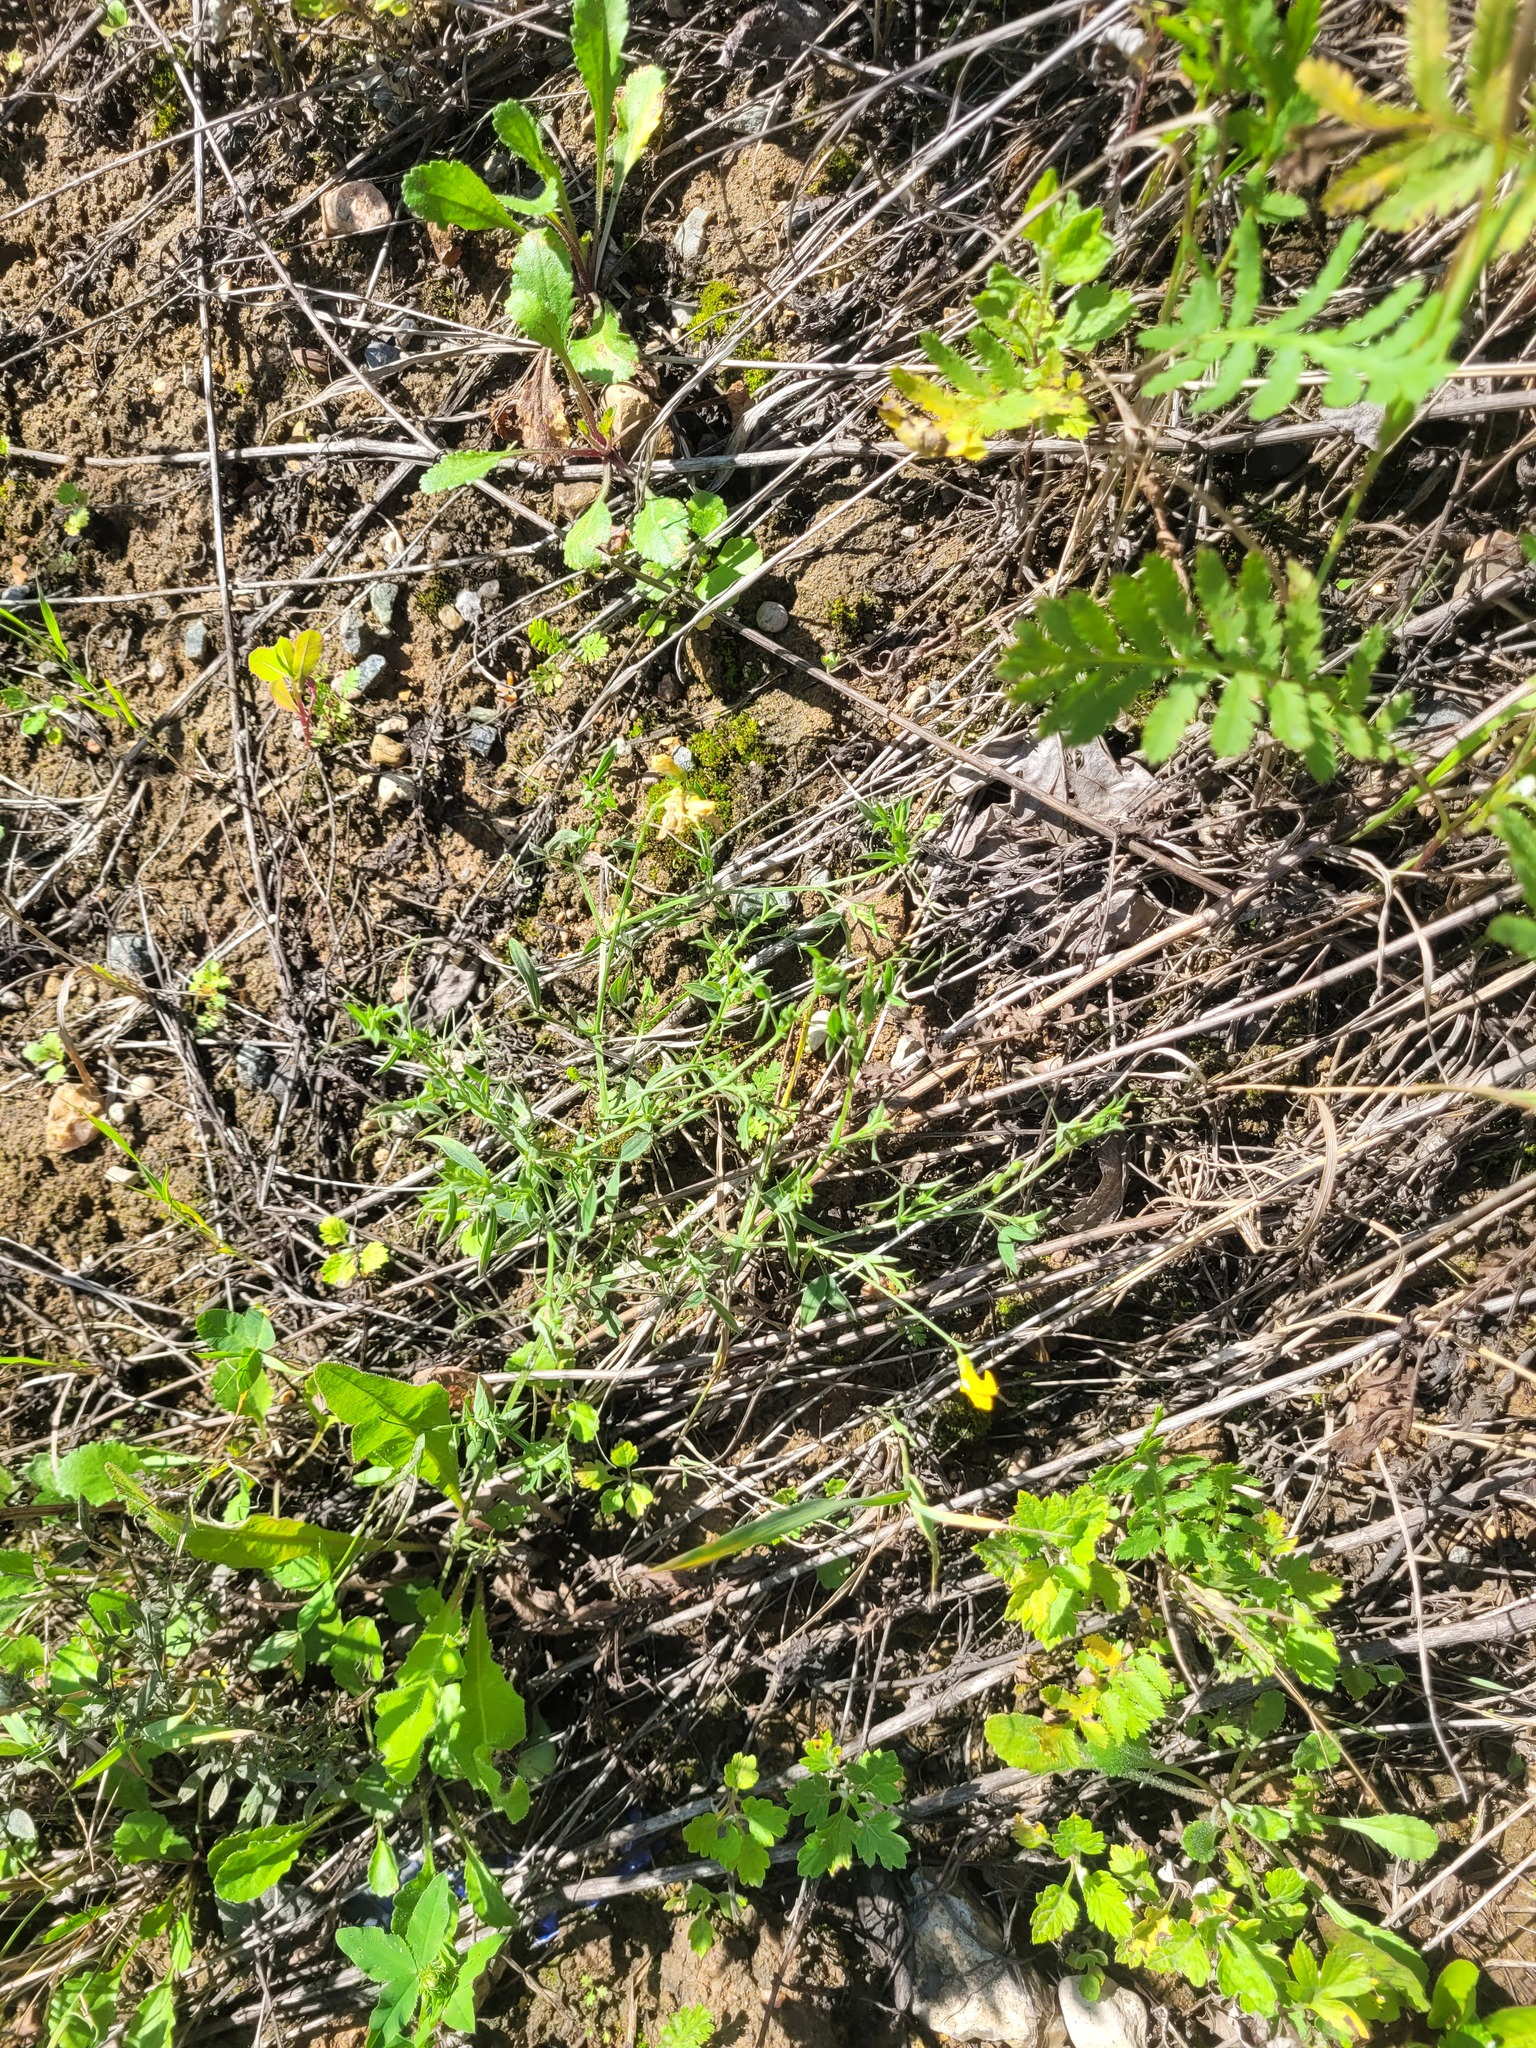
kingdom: Plantae
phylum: Tracheophyta
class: Magnoliopsida
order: Fabales
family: Fabaceae
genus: Lathyrus
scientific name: Lathyrus pratensis
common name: Meadow vetchling
